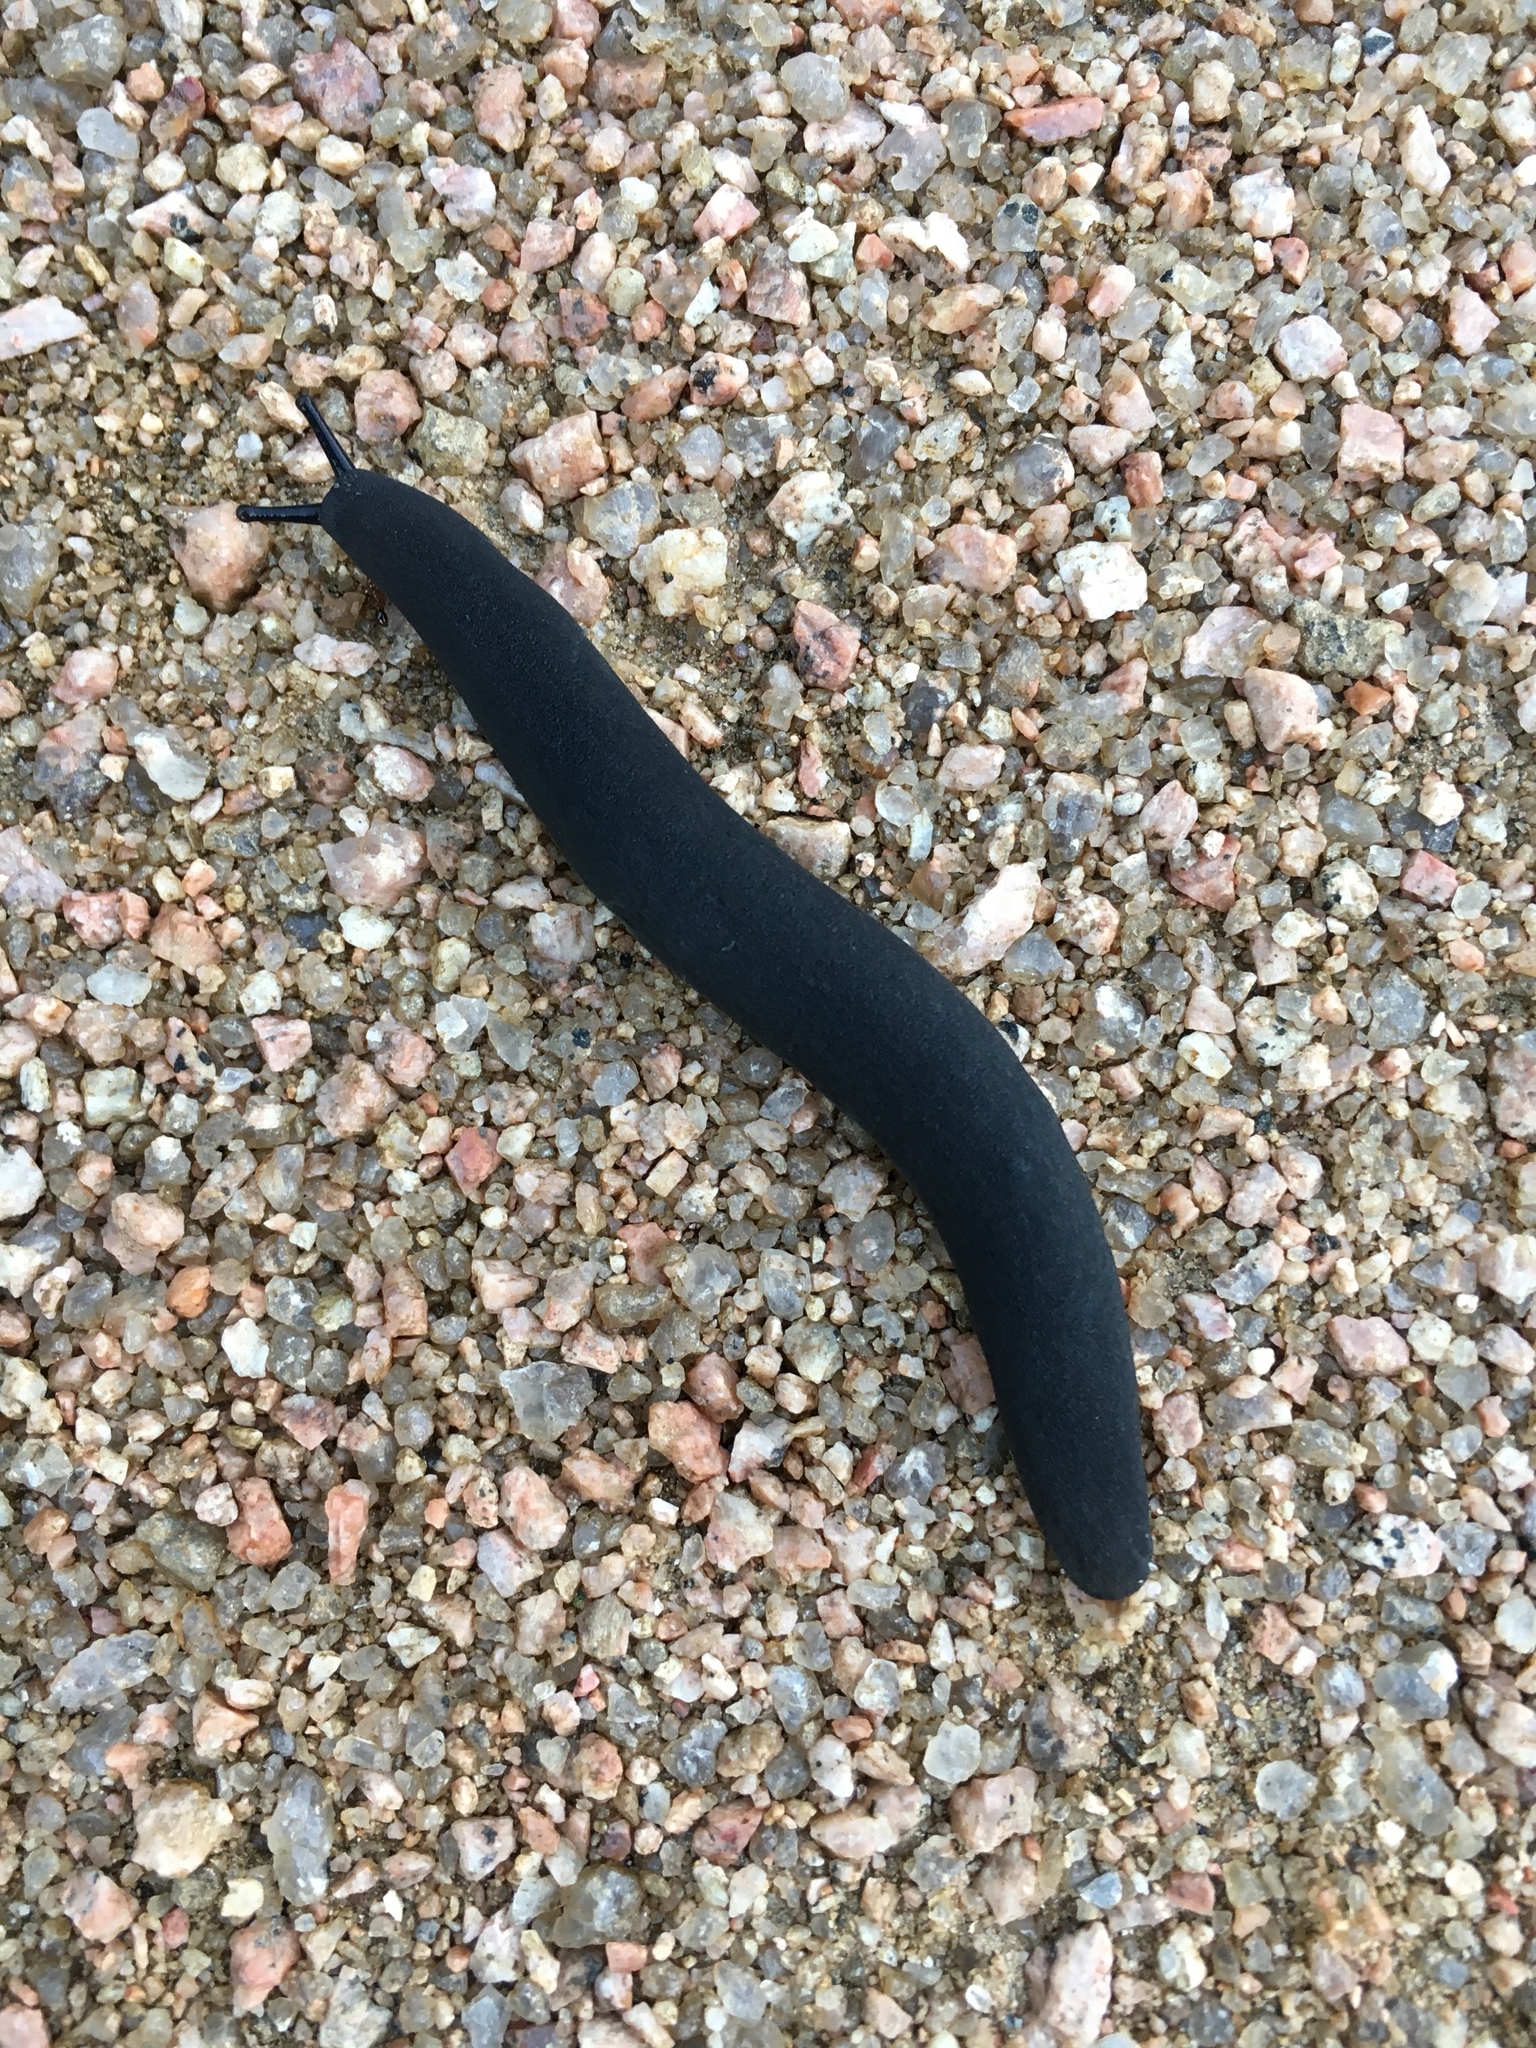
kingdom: Animalia
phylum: Mollusca
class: Gastropoda
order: Systellommatophora
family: Veronicellidae
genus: Belocaulus
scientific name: Belocaulus angustipes
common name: Black velvet leatherleaf slug
